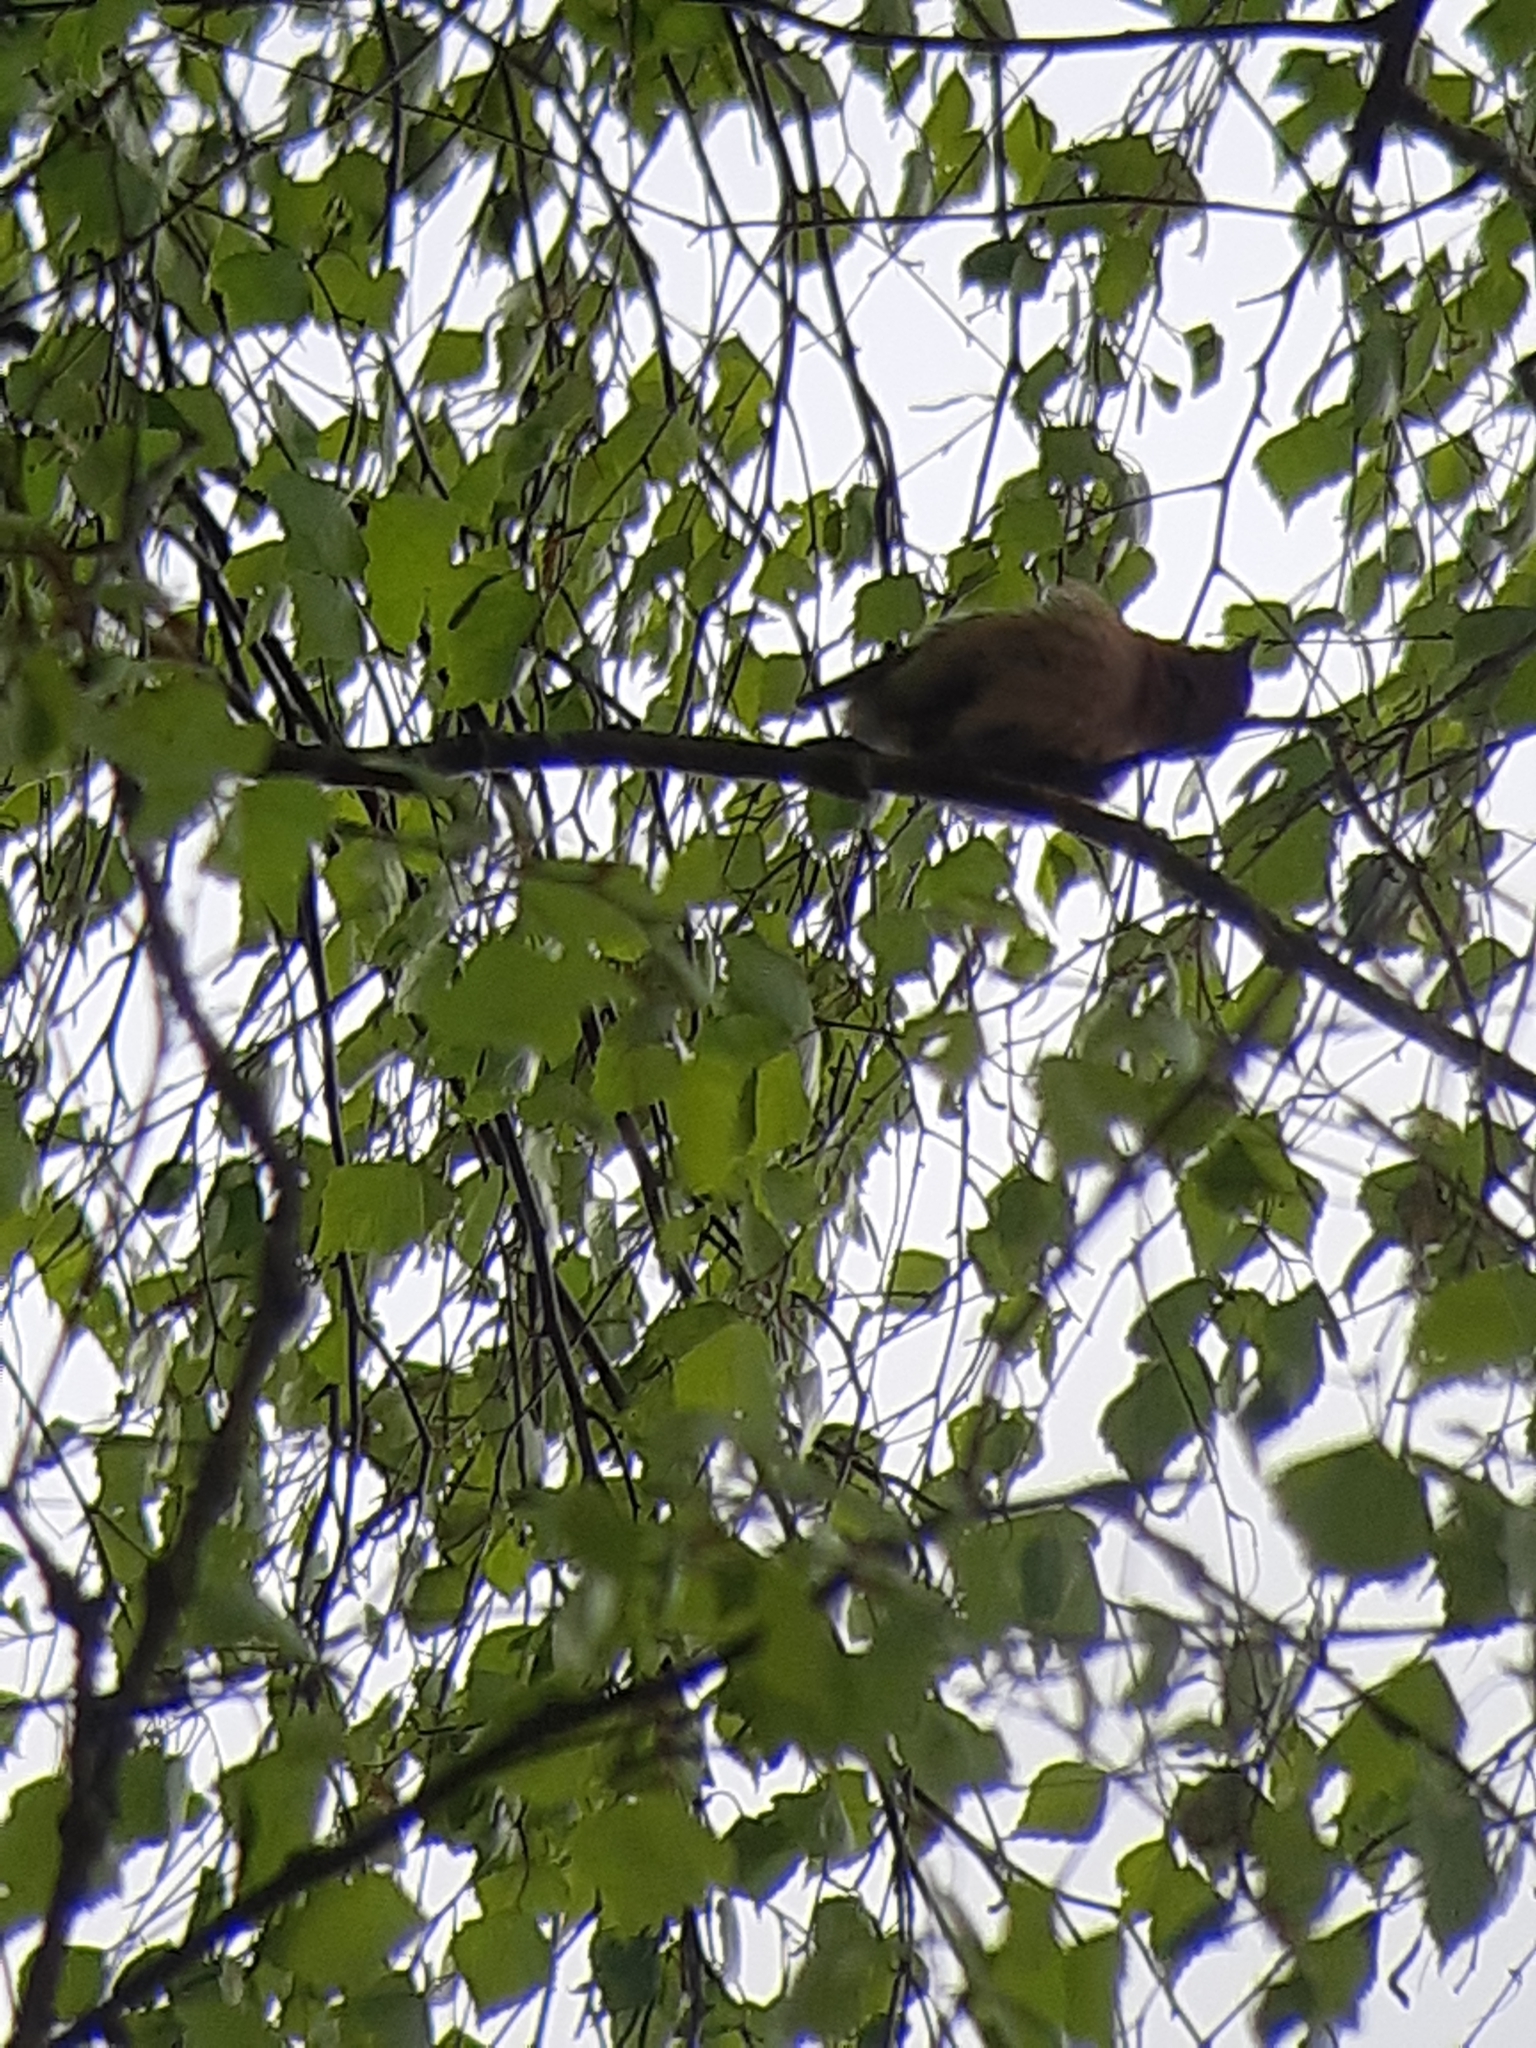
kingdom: Animalia
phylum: Chordata
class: Aves
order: Passeriformes
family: Fringillidae
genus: Fringilla
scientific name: Fringilla coelebs
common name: Common chaffinch
